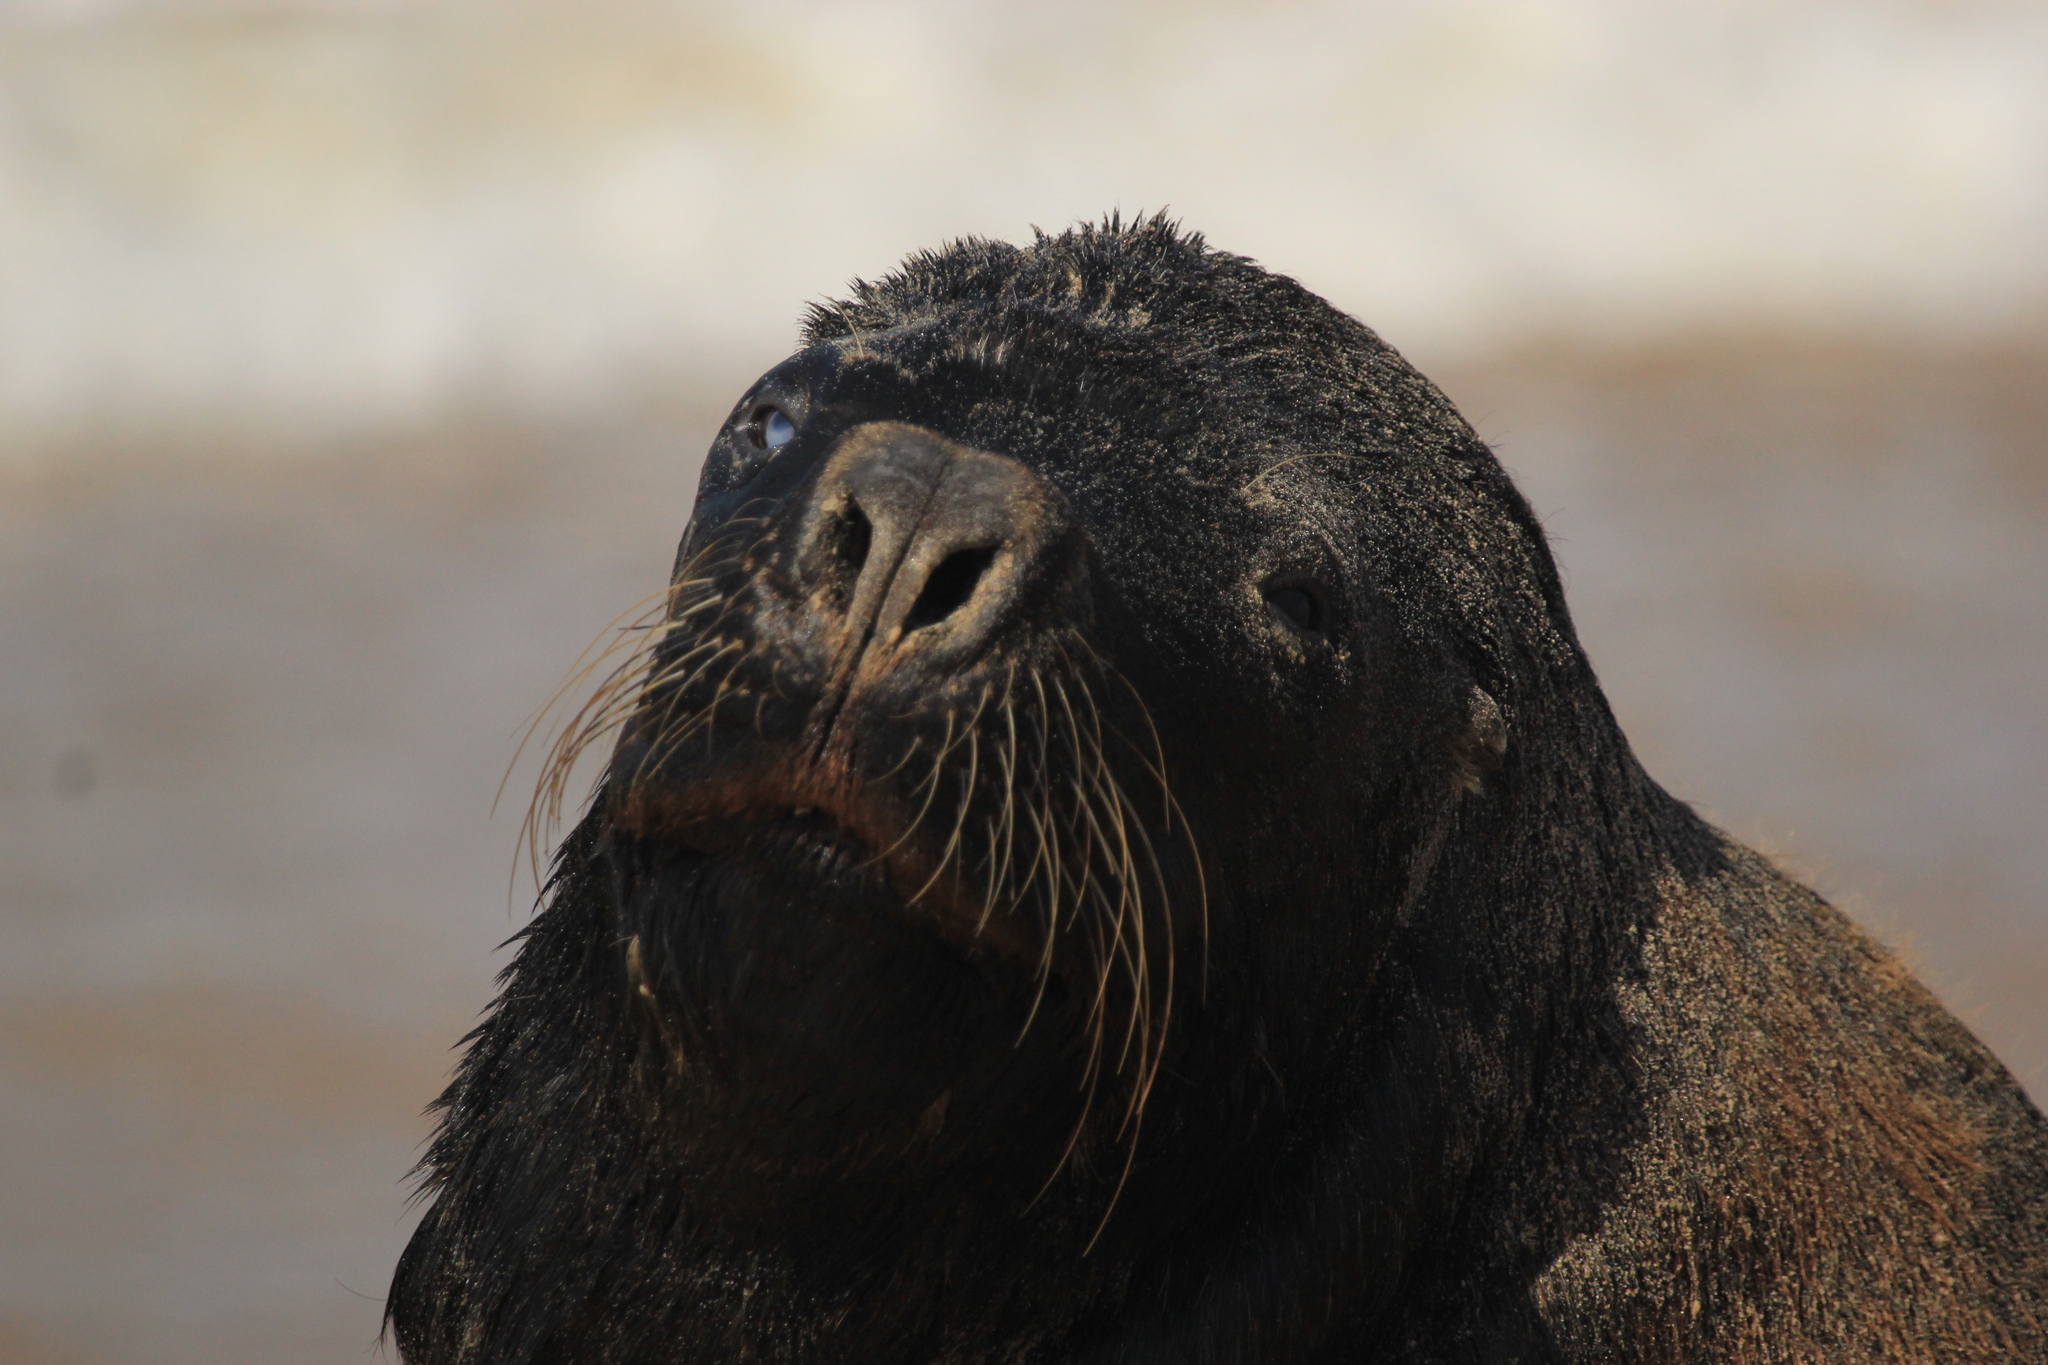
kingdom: Animalia
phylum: Chordata
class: Mammalia
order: Carnivora
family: Otariidae
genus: Otaria
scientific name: Otaria byronia
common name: South american sea lion
